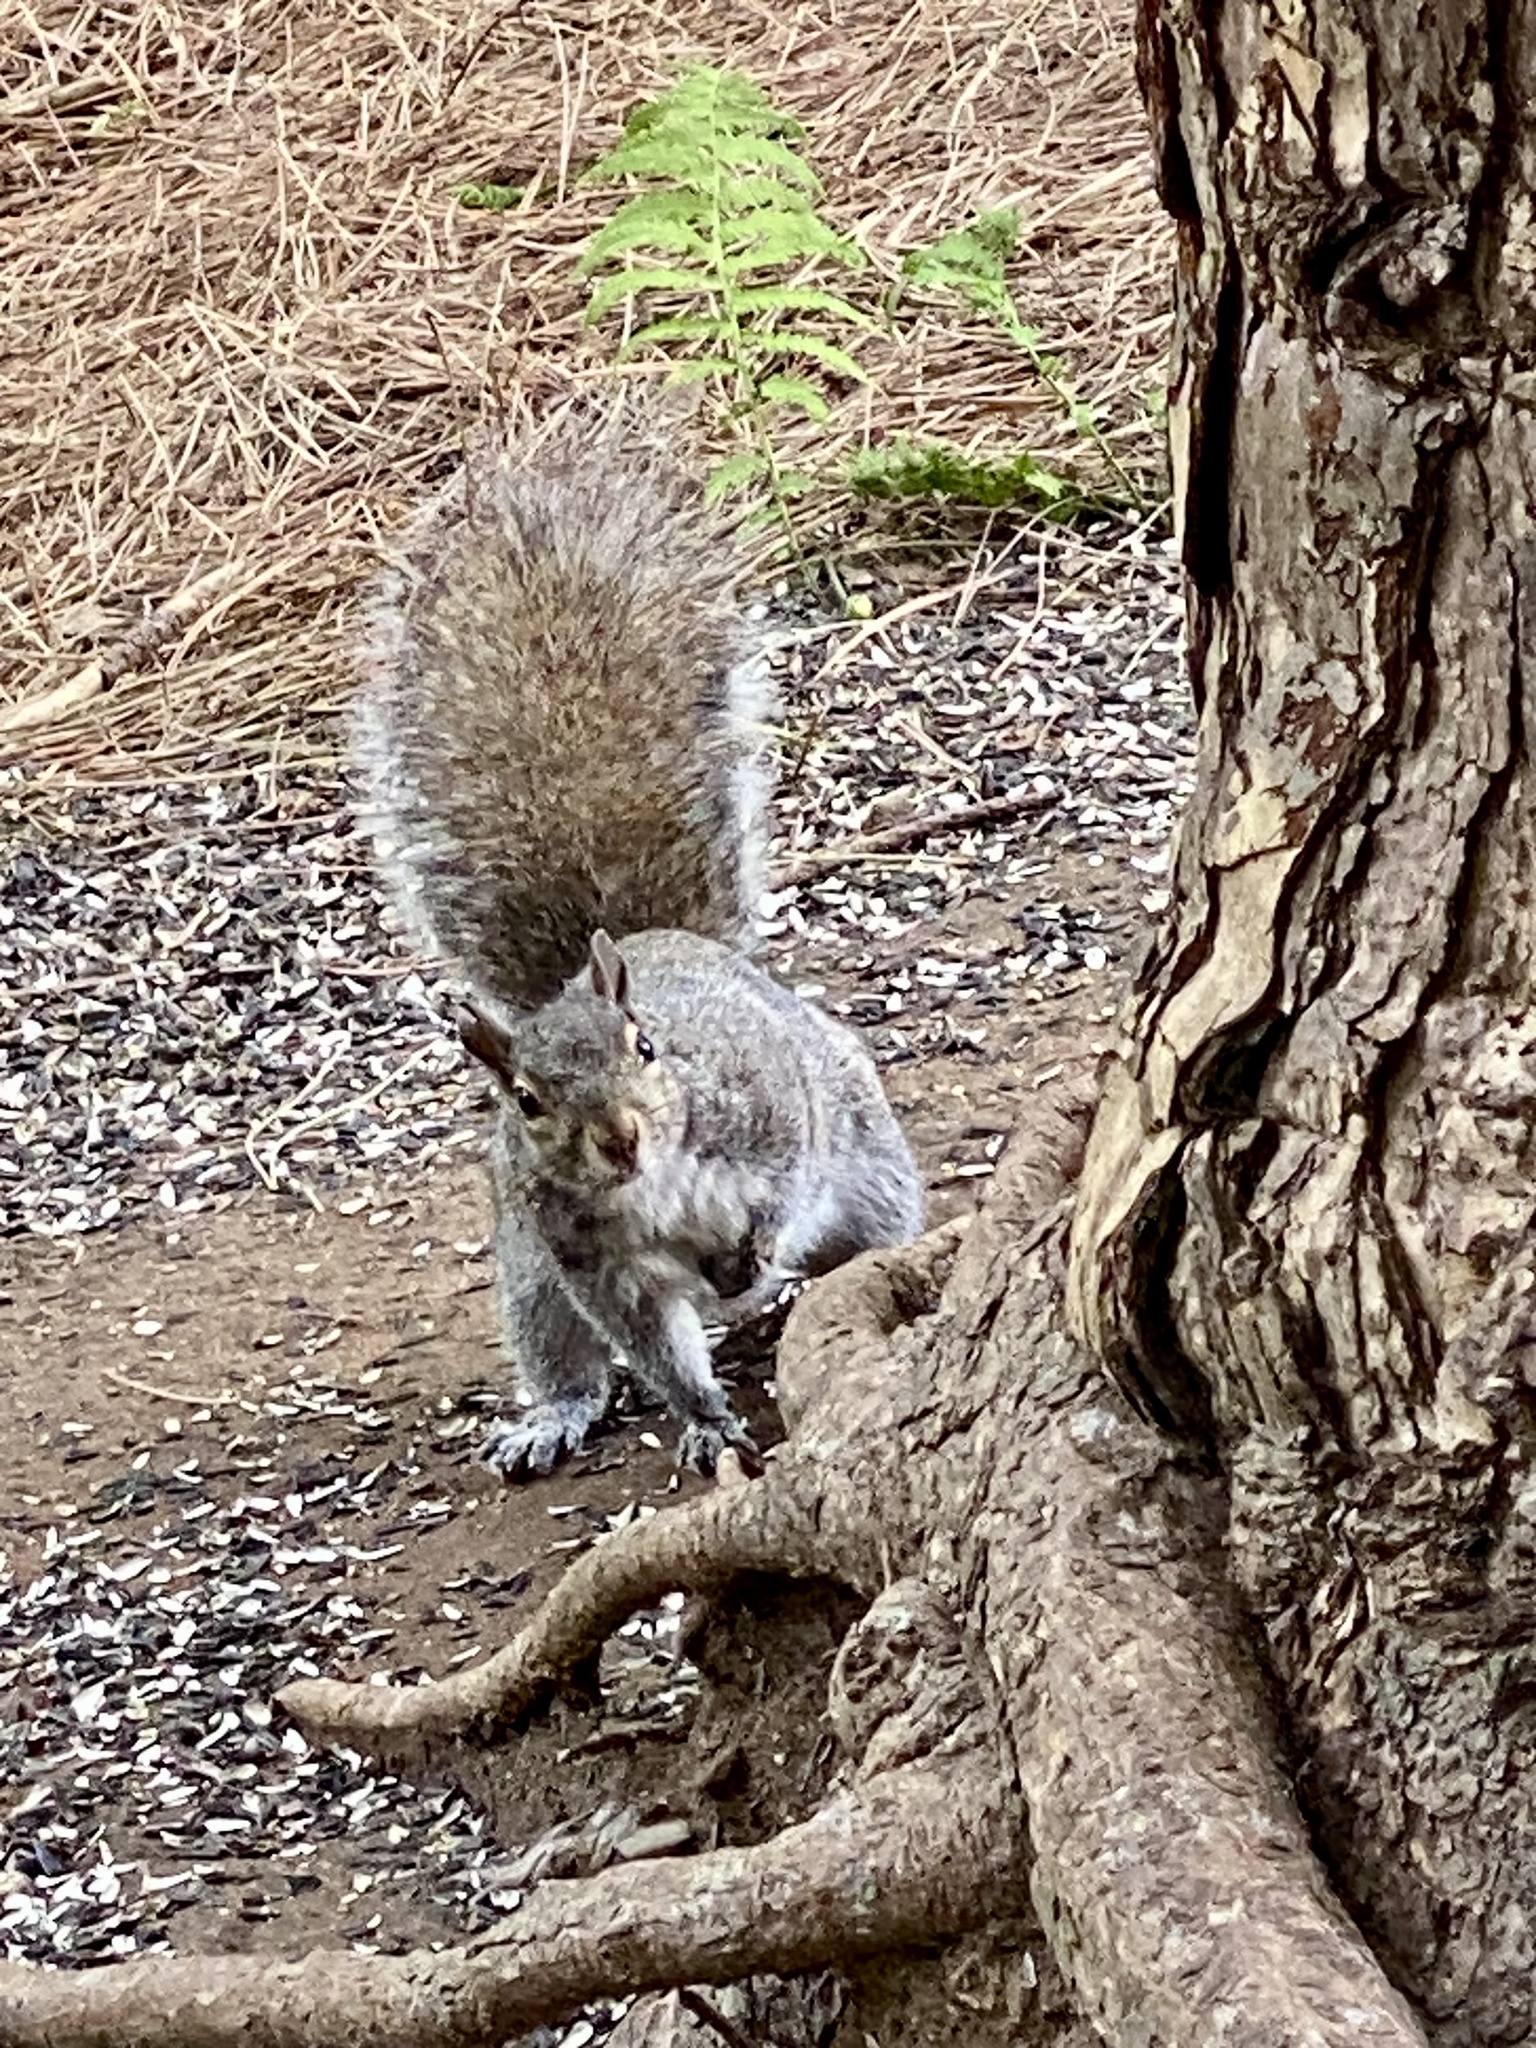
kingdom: Animalia
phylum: Chordata
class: Mammalia
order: Rodentia
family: Sciuridae
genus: Sciurus
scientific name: Sciurus carolinensis
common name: Eastern gray squirrel
